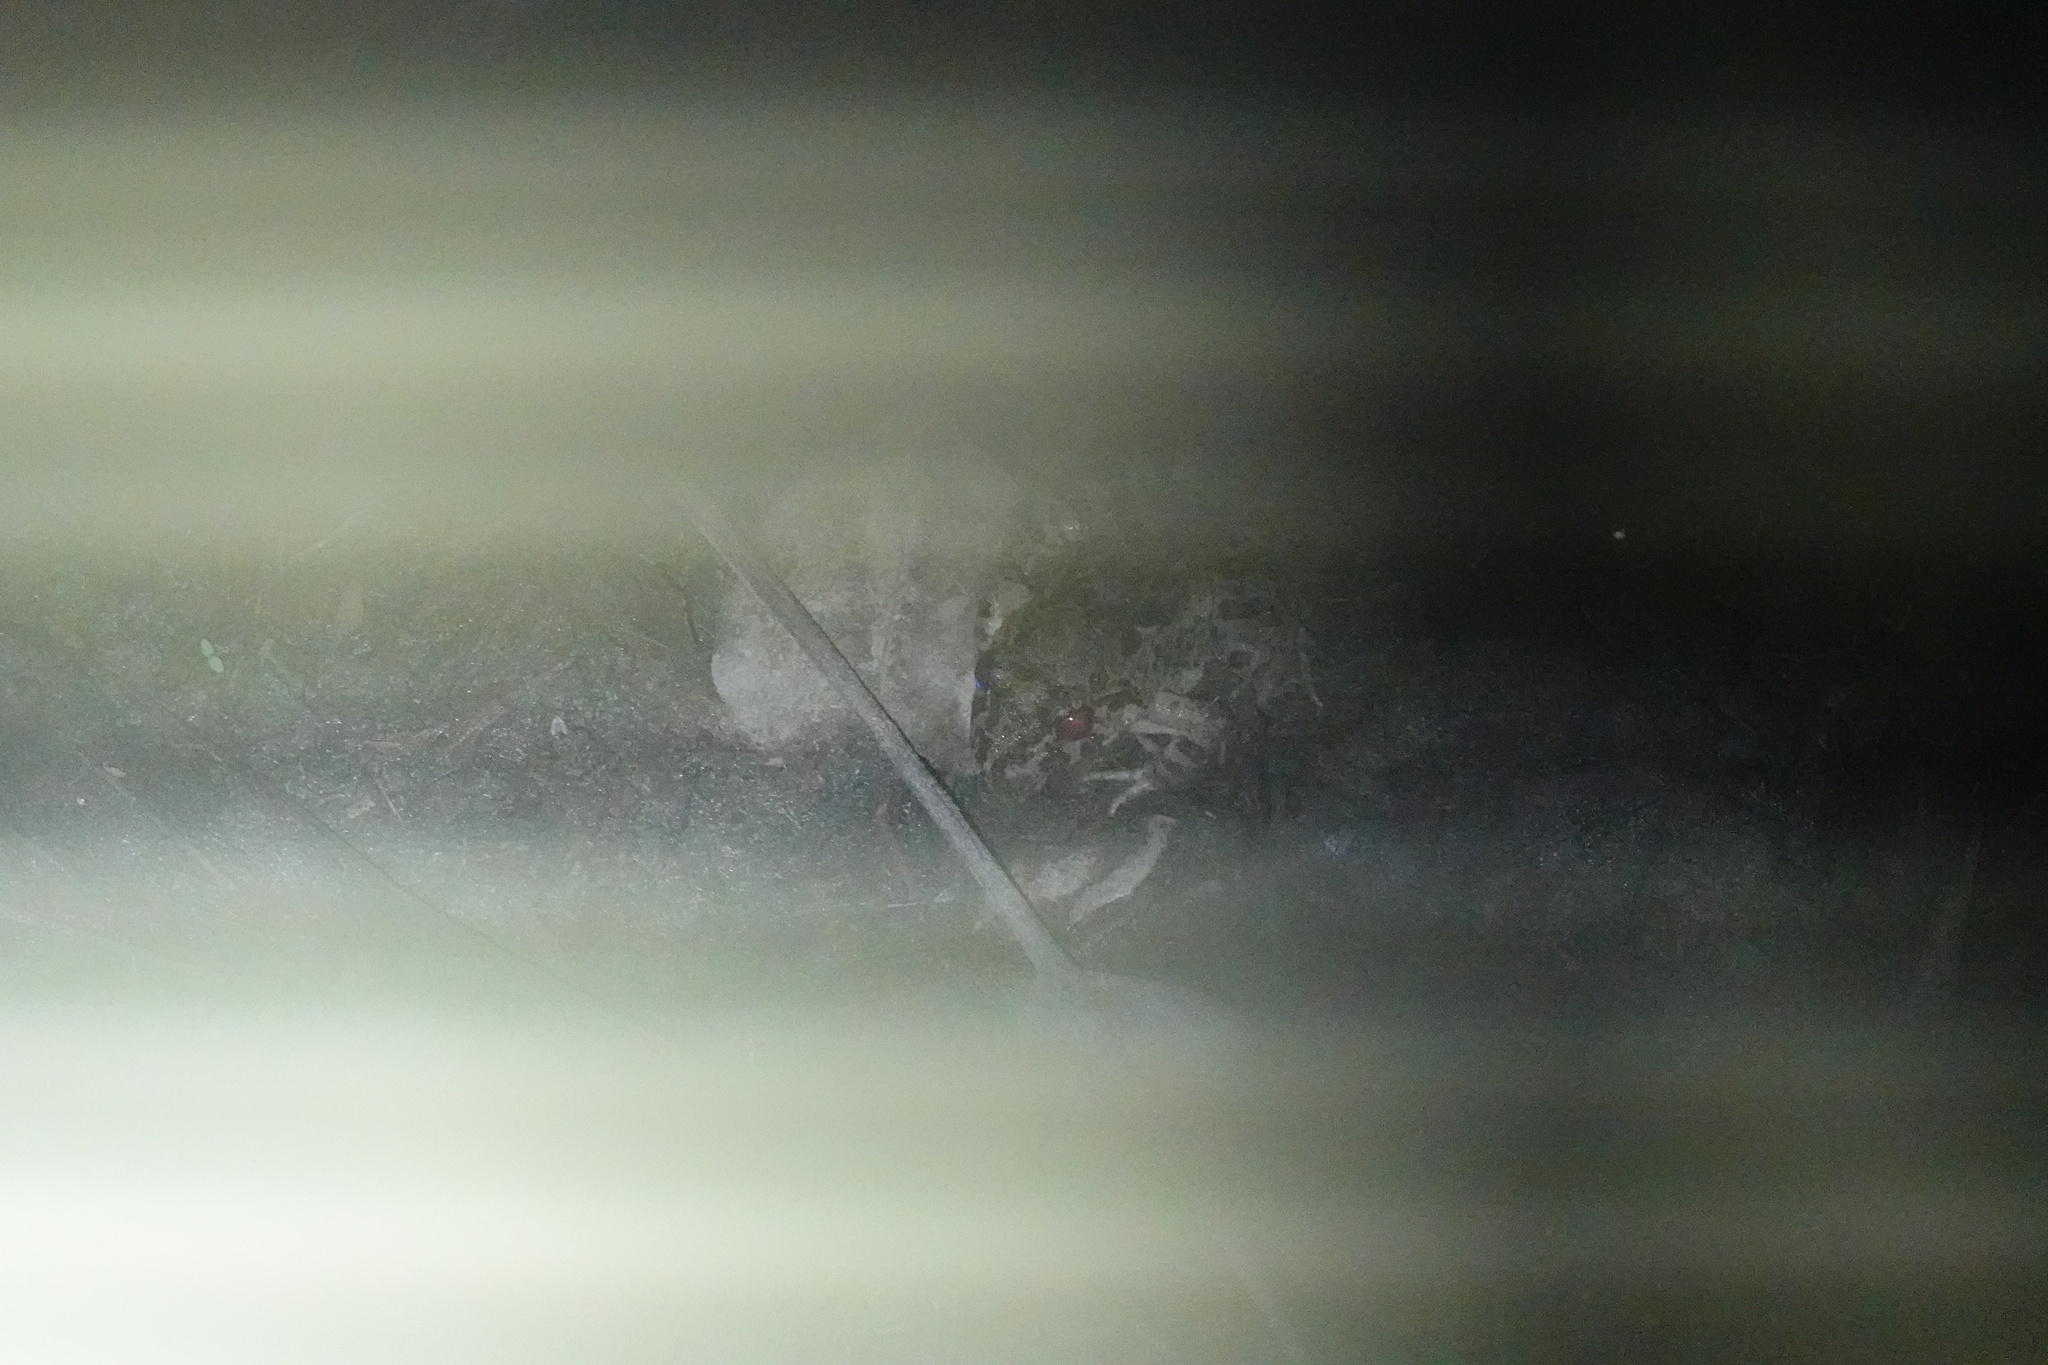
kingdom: Animalia
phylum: Chordata
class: Amphibia
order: Anura
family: Dicroglossidae
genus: Fejervarya
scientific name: Fejervarya limnocharis
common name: Asian grass frog/common pond frog/field frog/grass frog/indian rice frog
